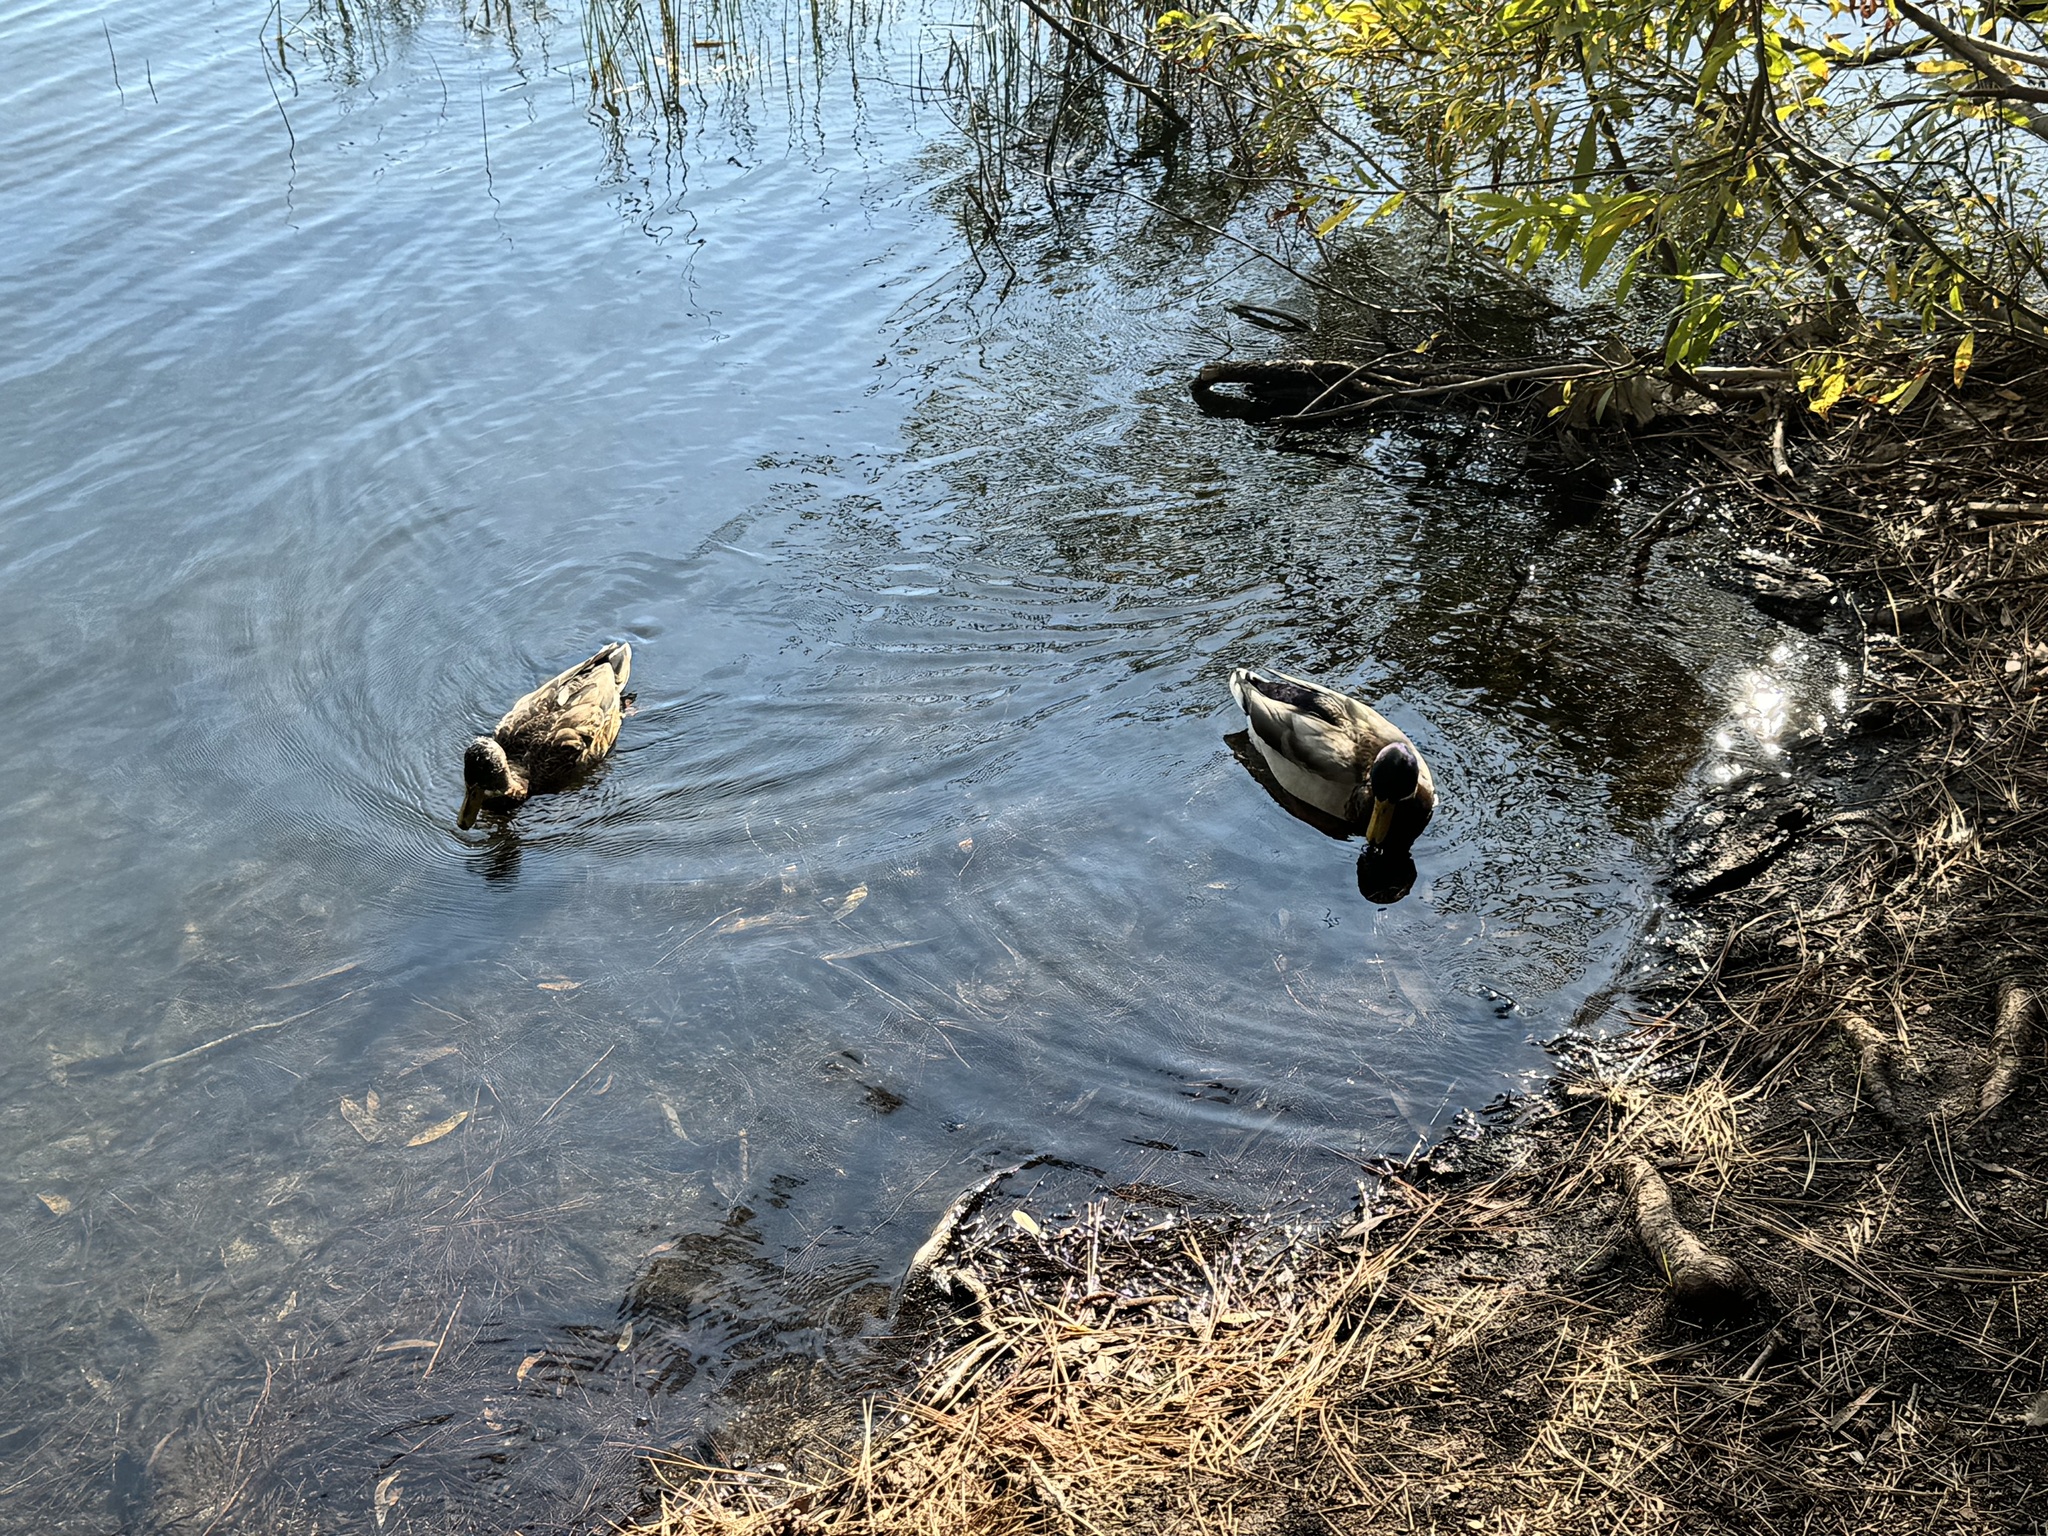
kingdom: Animalia
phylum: Chordata
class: Aves
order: Anseriformes
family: Anatidae
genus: Anas
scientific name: Anas platyrhynchos
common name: Mallard
